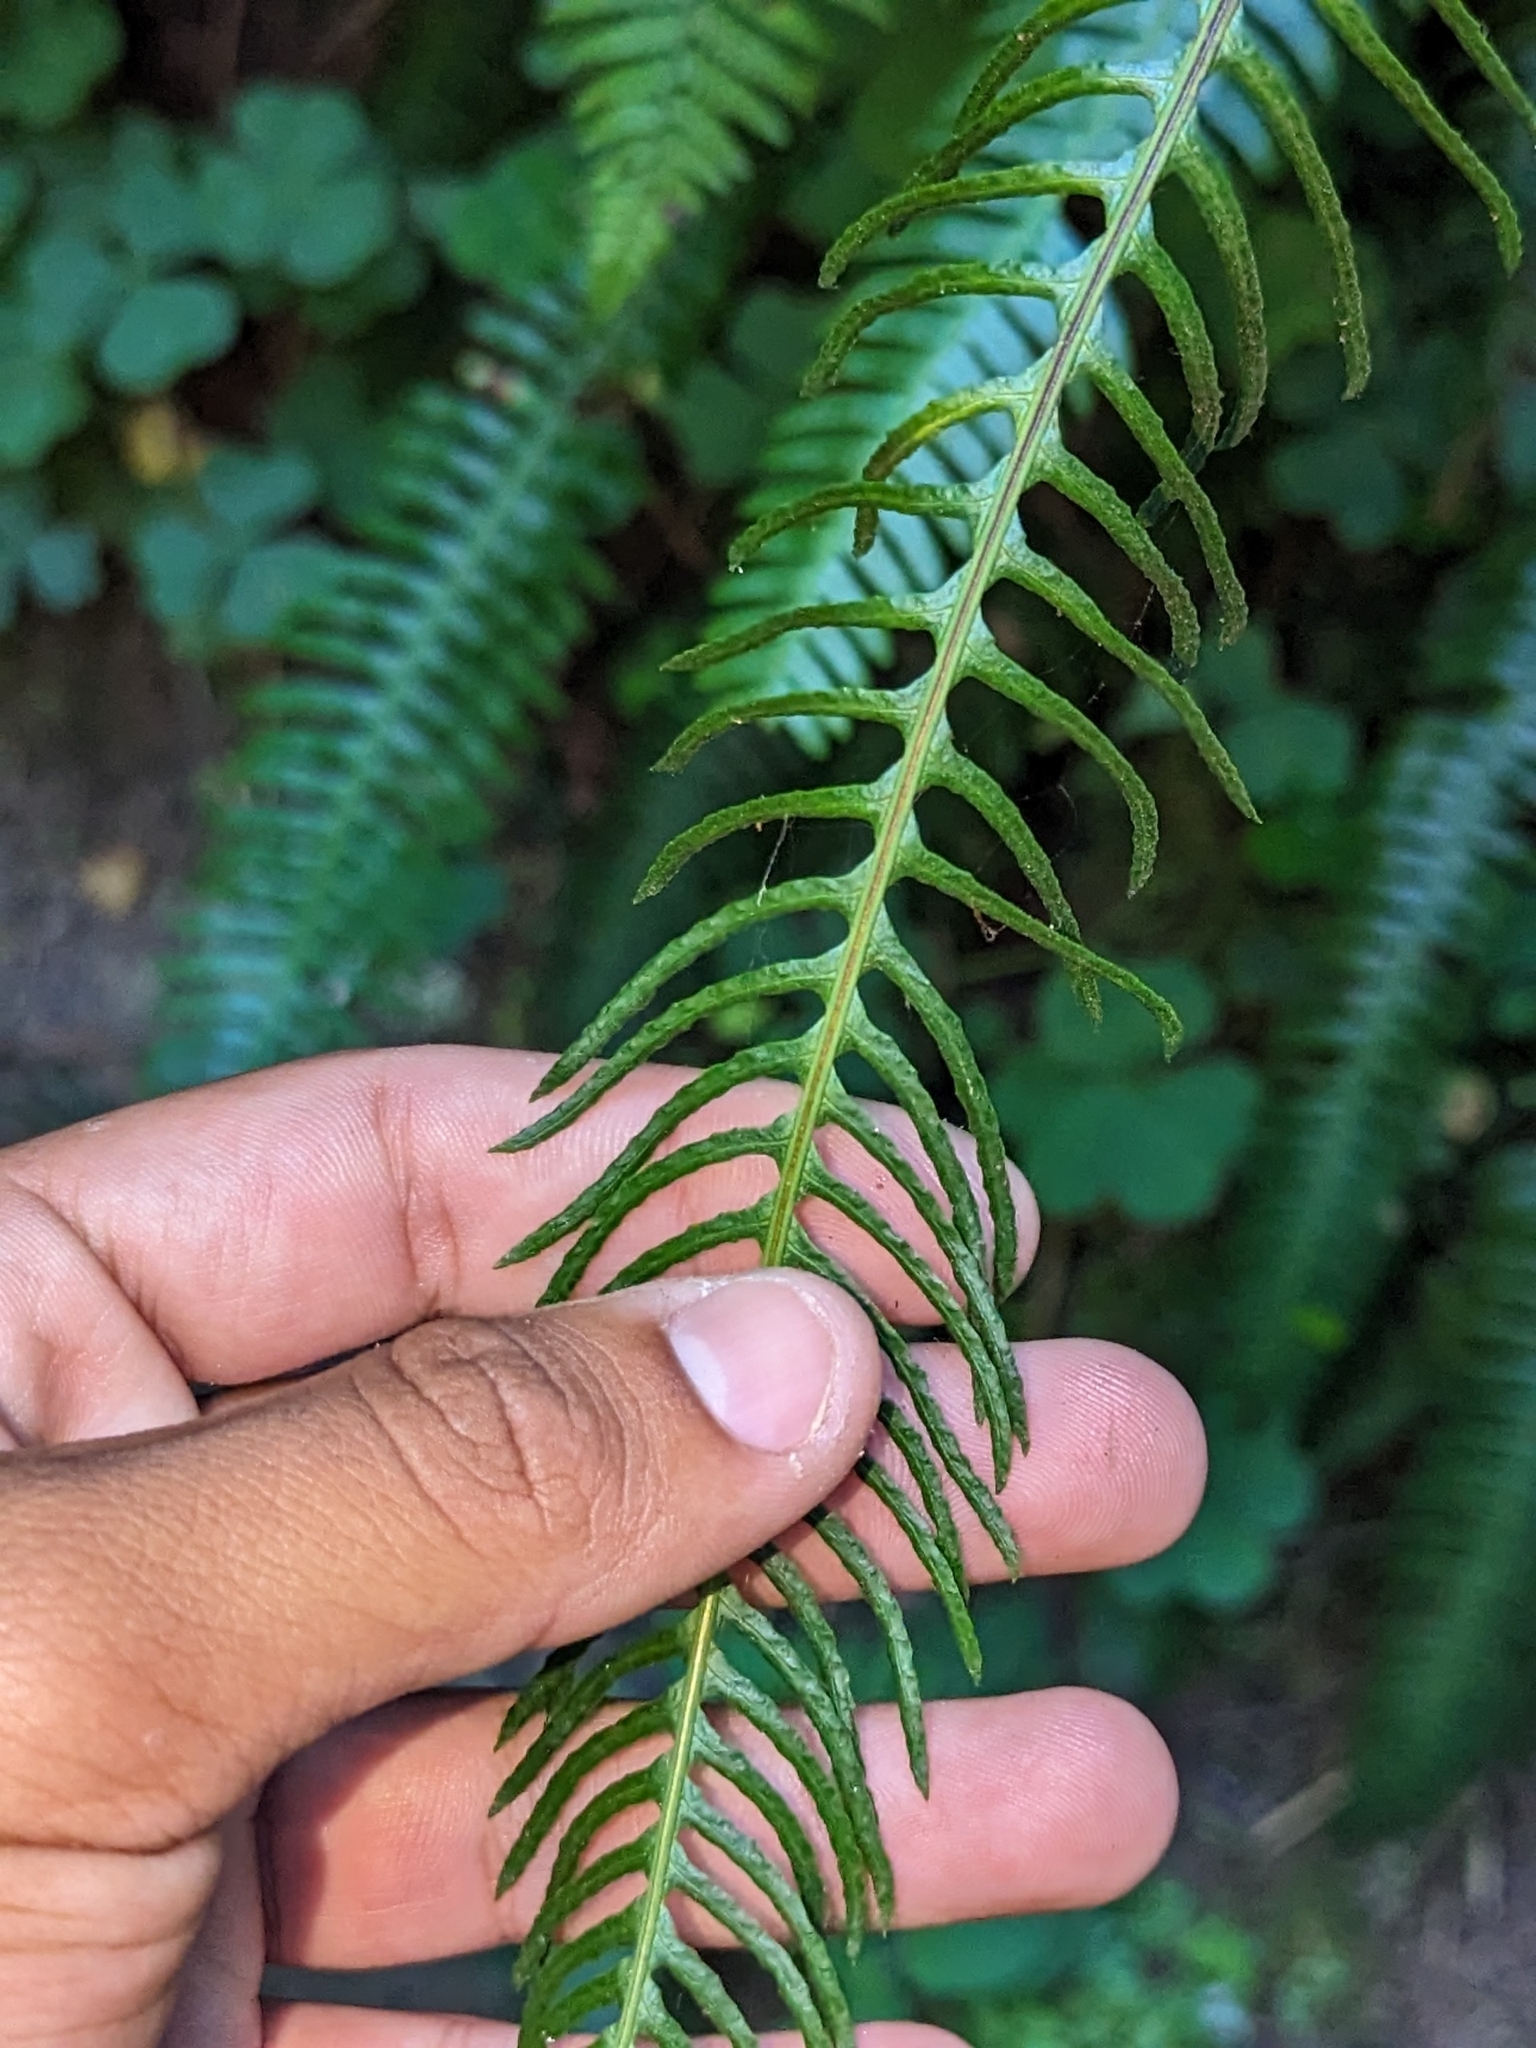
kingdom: Plantae
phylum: Tracheophyta
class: Polypodiopsida
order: Polypodiales
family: Blechnaceae
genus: Struthiopteris
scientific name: Struthiopteris spicant
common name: Deer fern
